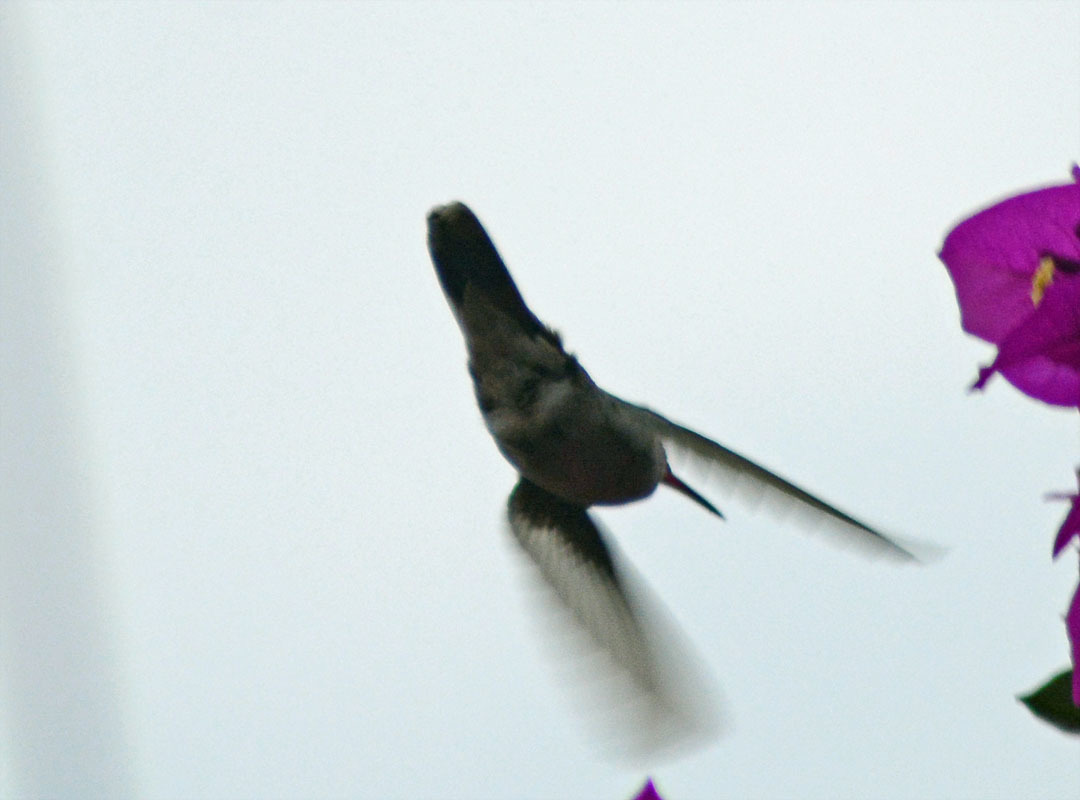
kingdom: Animalia
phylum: Chordata
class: Aves
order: Apodiformes
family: Trochilidae
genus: Cynanthus
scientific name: Cynanthus latirostris
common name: Broad-billed hummingbird
